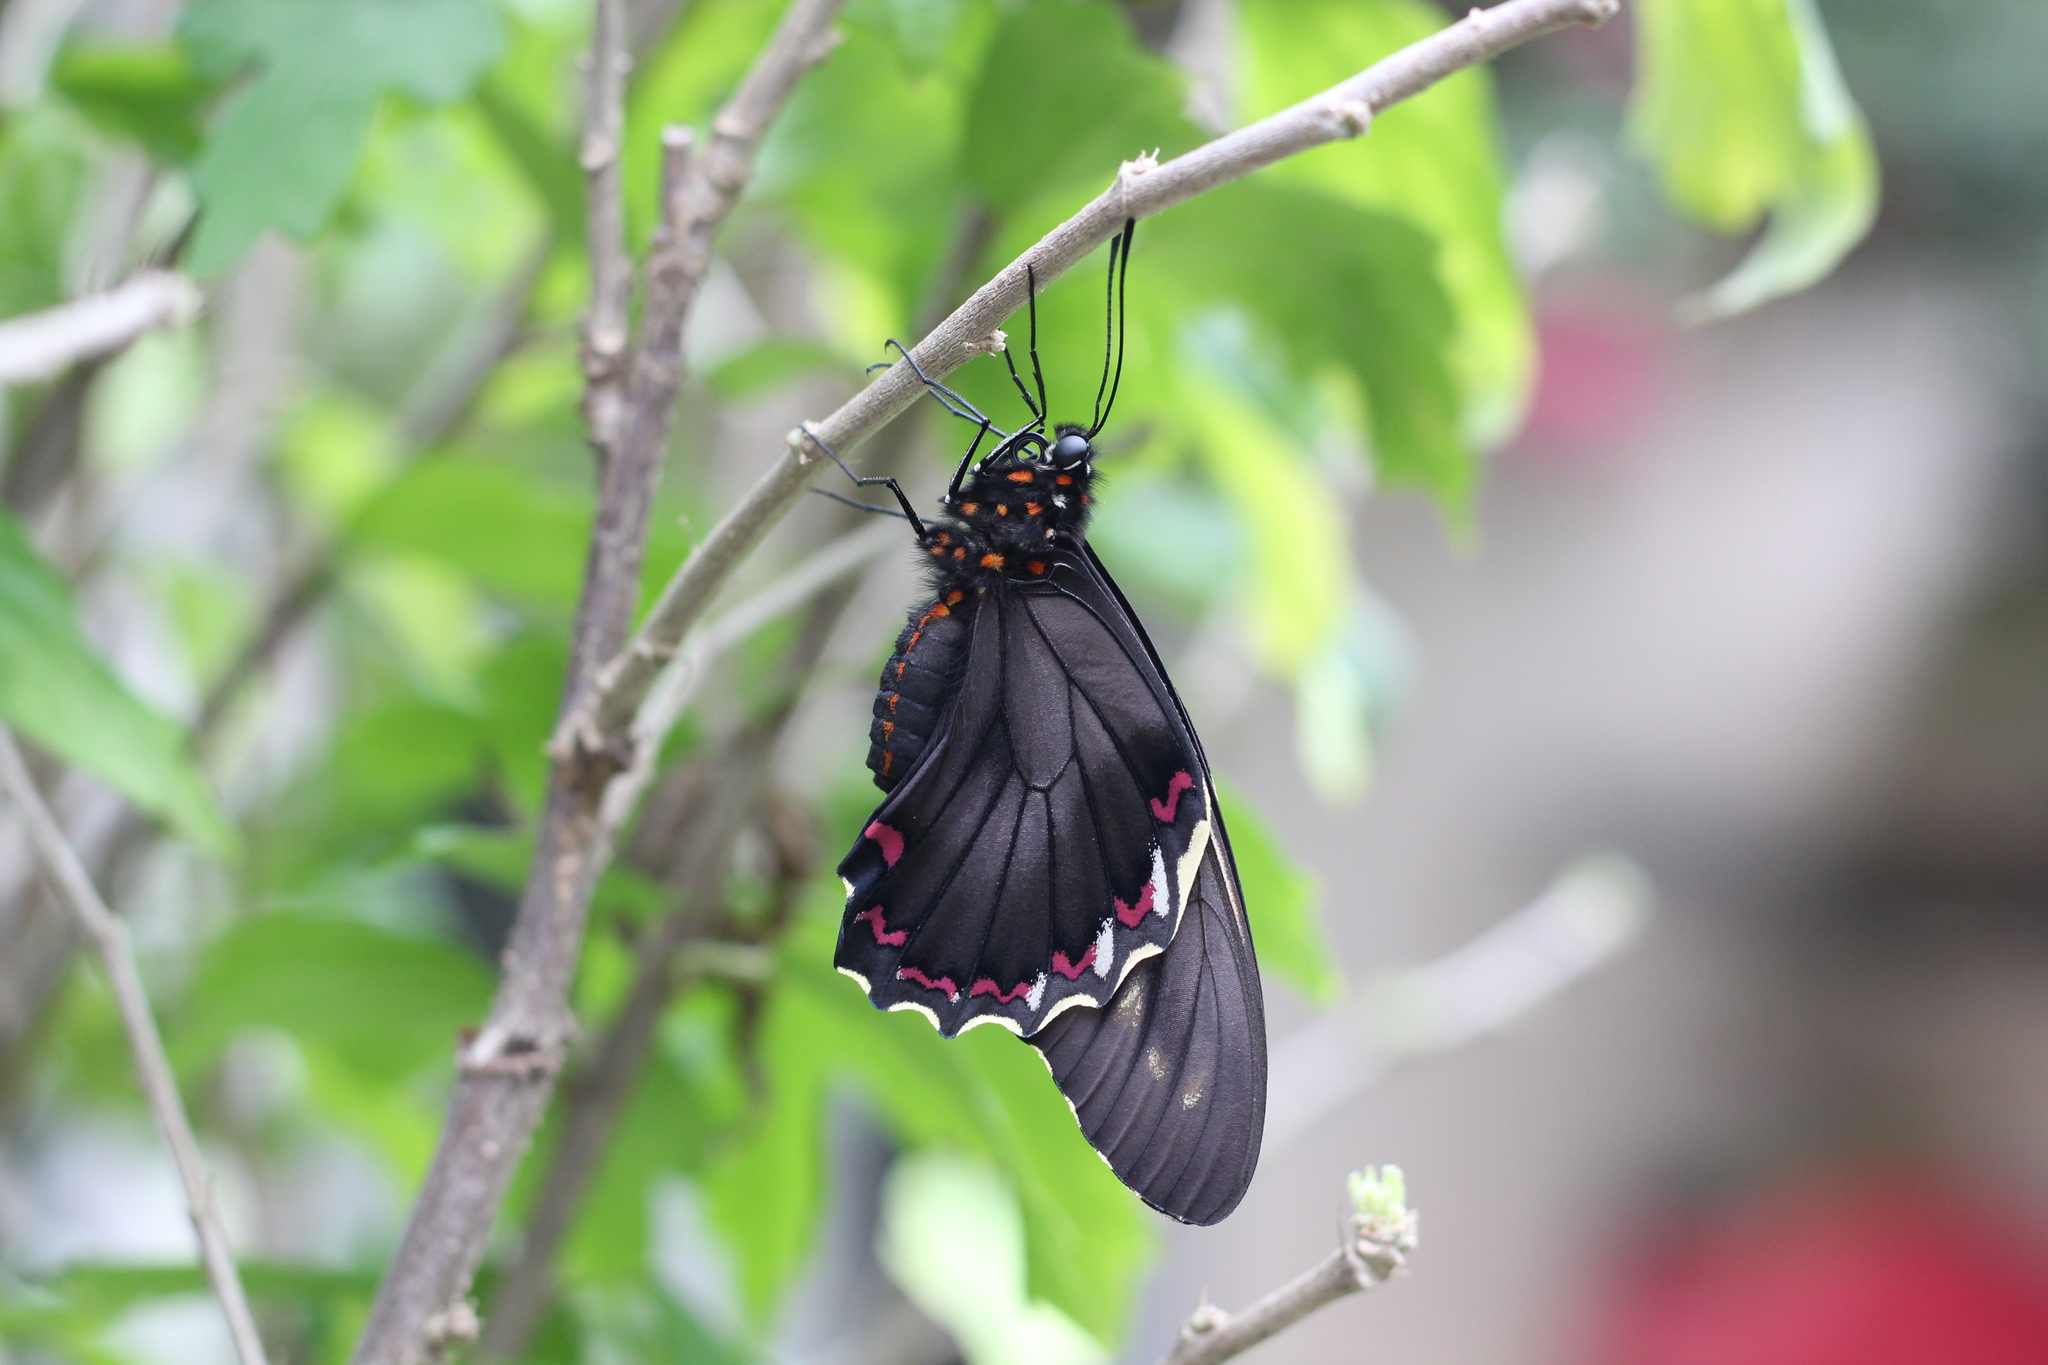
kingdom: Animalia
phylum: Arthropoda
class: Insecta
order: Lepidoptera
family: Papilionidae
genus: Battus
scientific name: Battus polydamas
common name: Polydamas swallowtail
